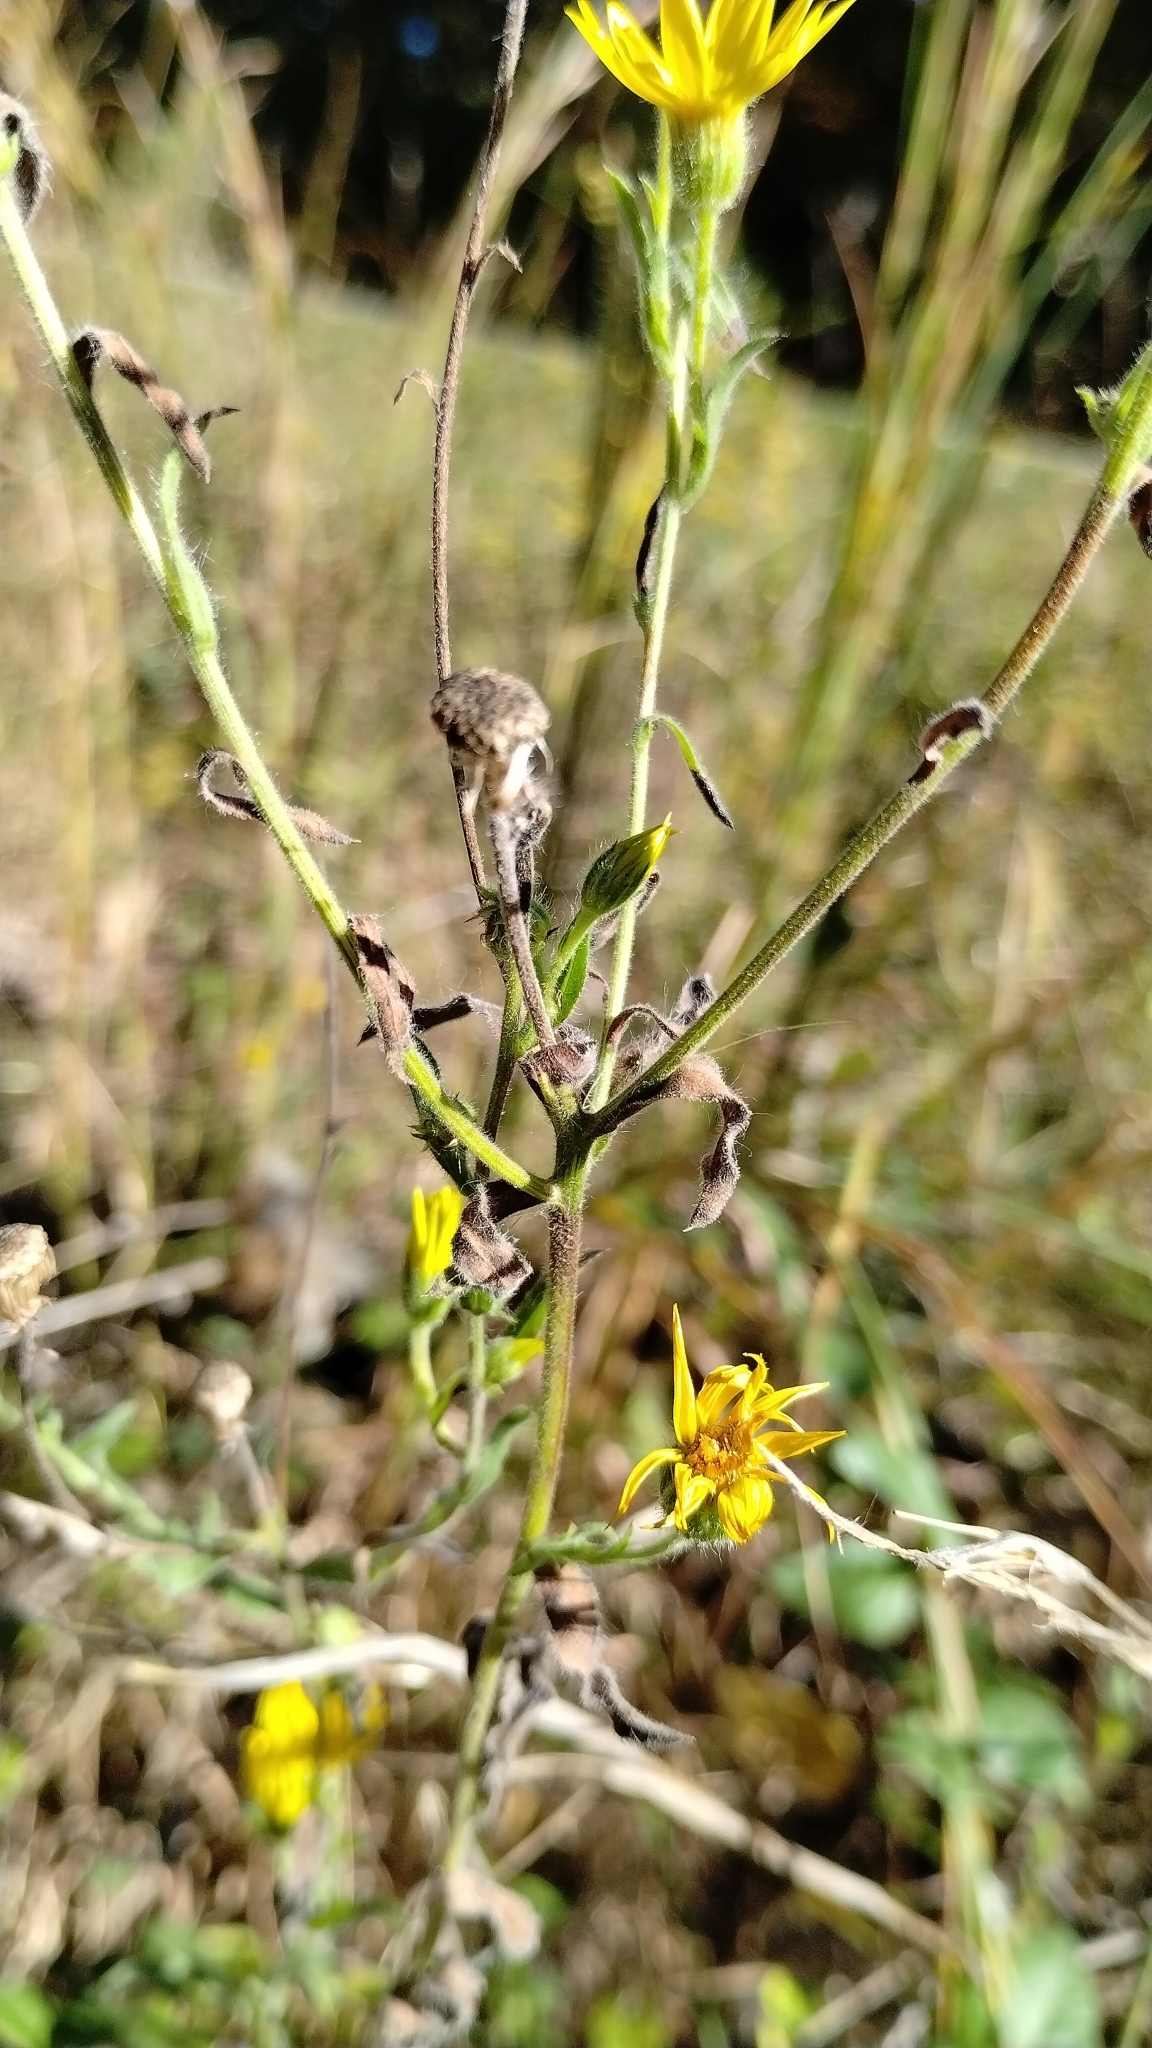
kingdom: Plantae
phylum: Tracheophyta
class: Magnoliopsida
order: Asterales
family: Asteraceae
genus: Bradburia
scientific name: Bradburia pilosa
